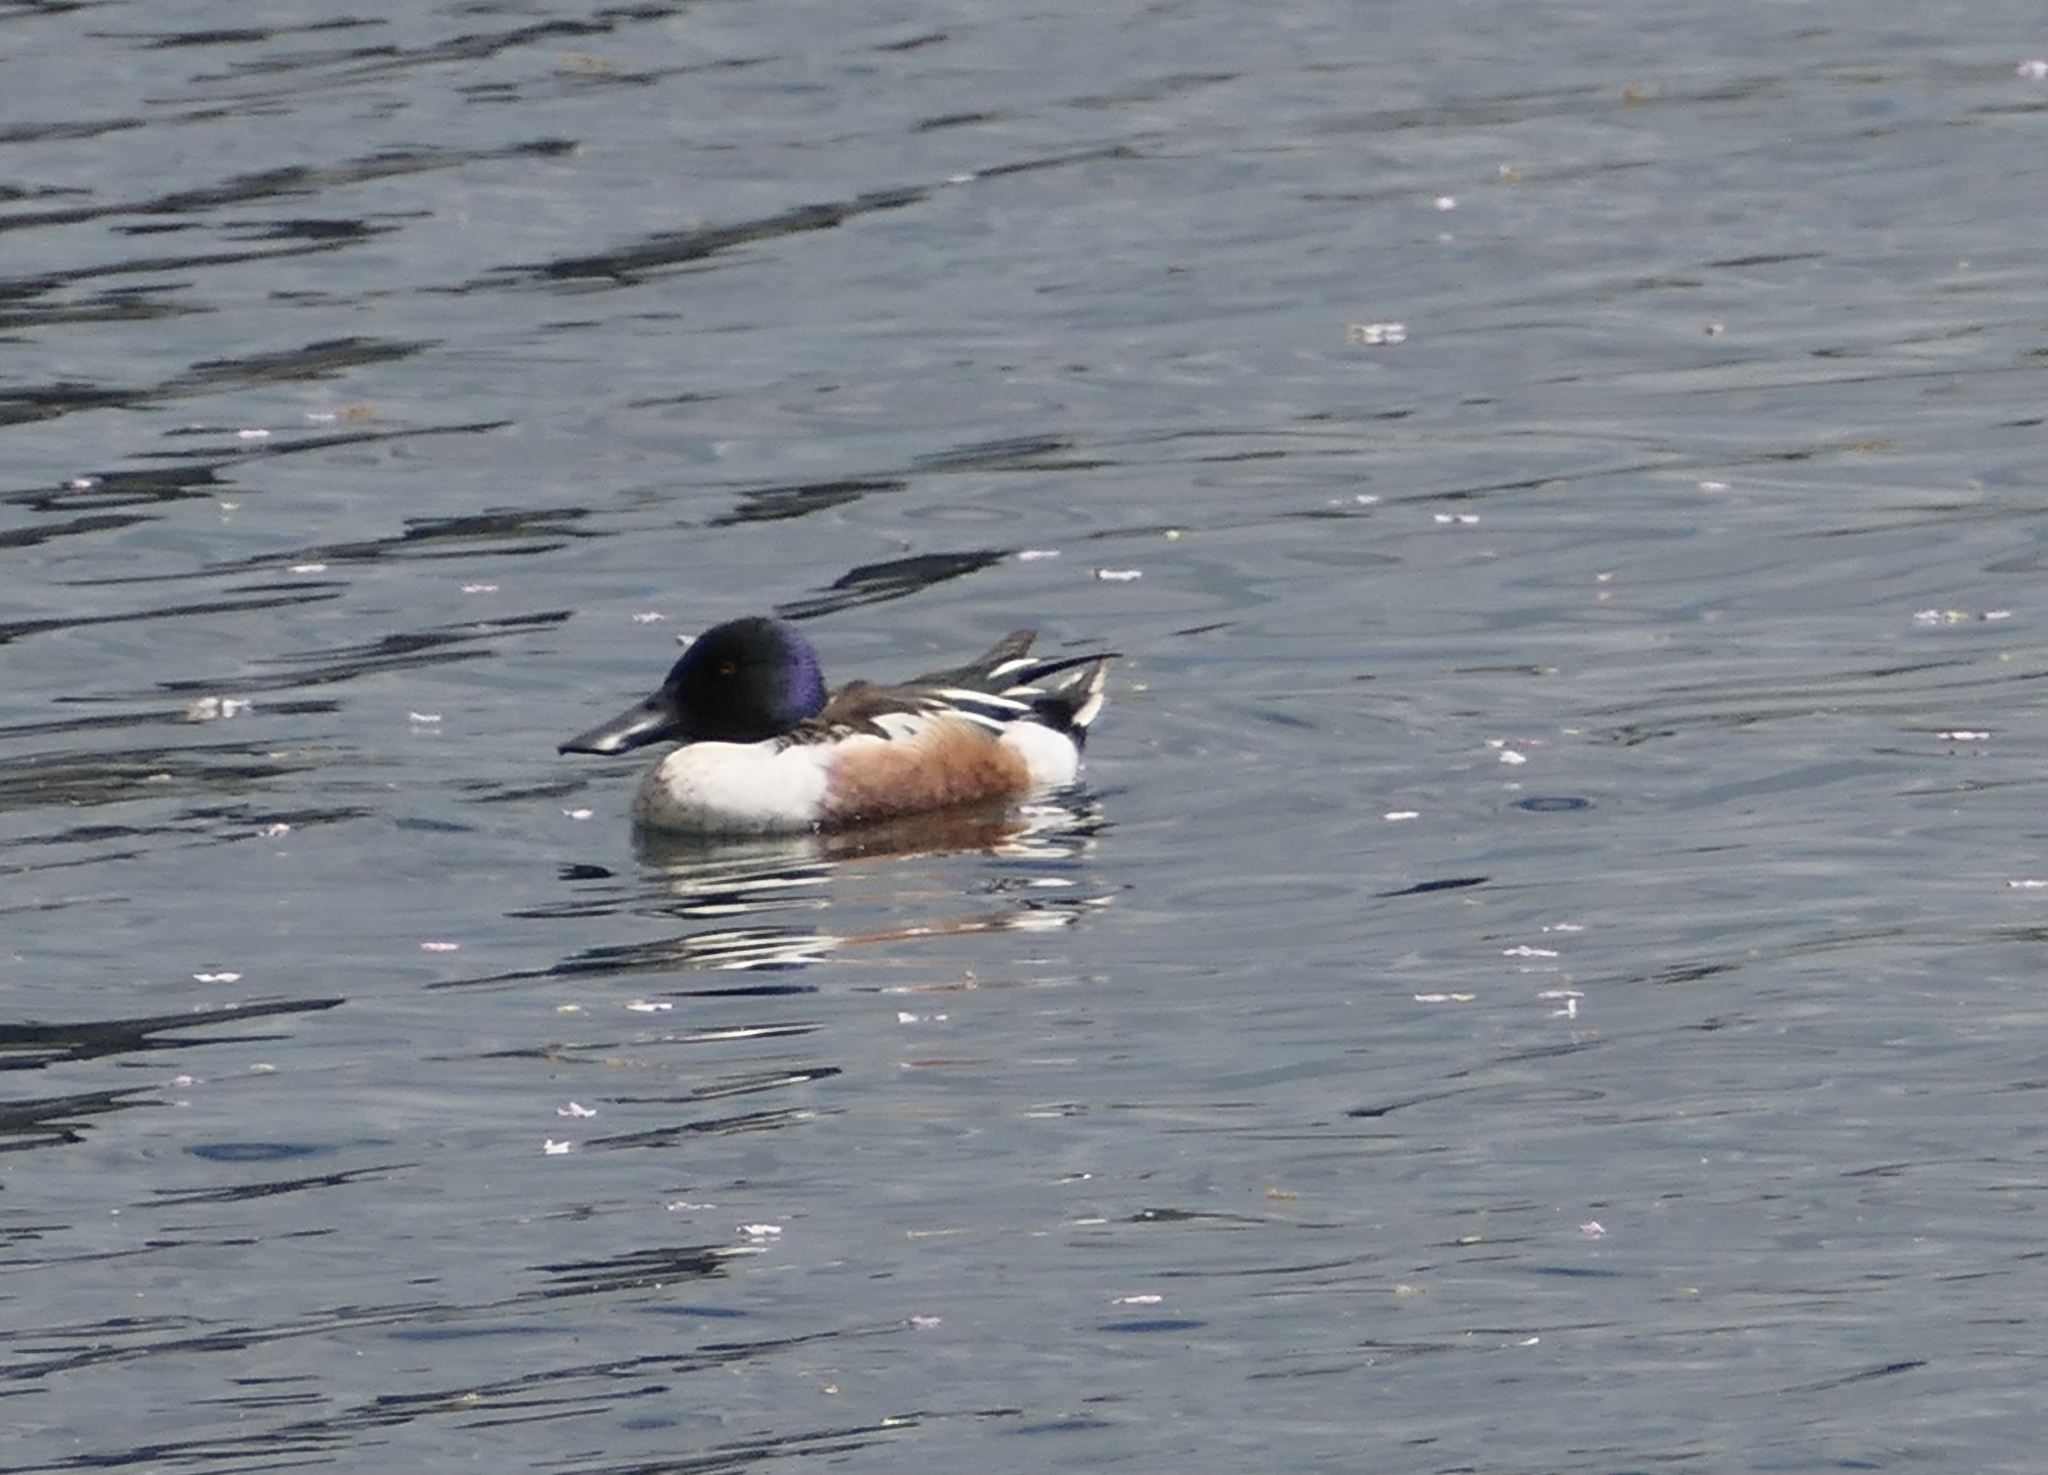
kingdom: Animalia
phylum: Chordata
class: Aves
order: Anseriformes
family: Anatidae
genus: Spatula
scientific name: Spatula clypeata
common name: Northern shoveler
